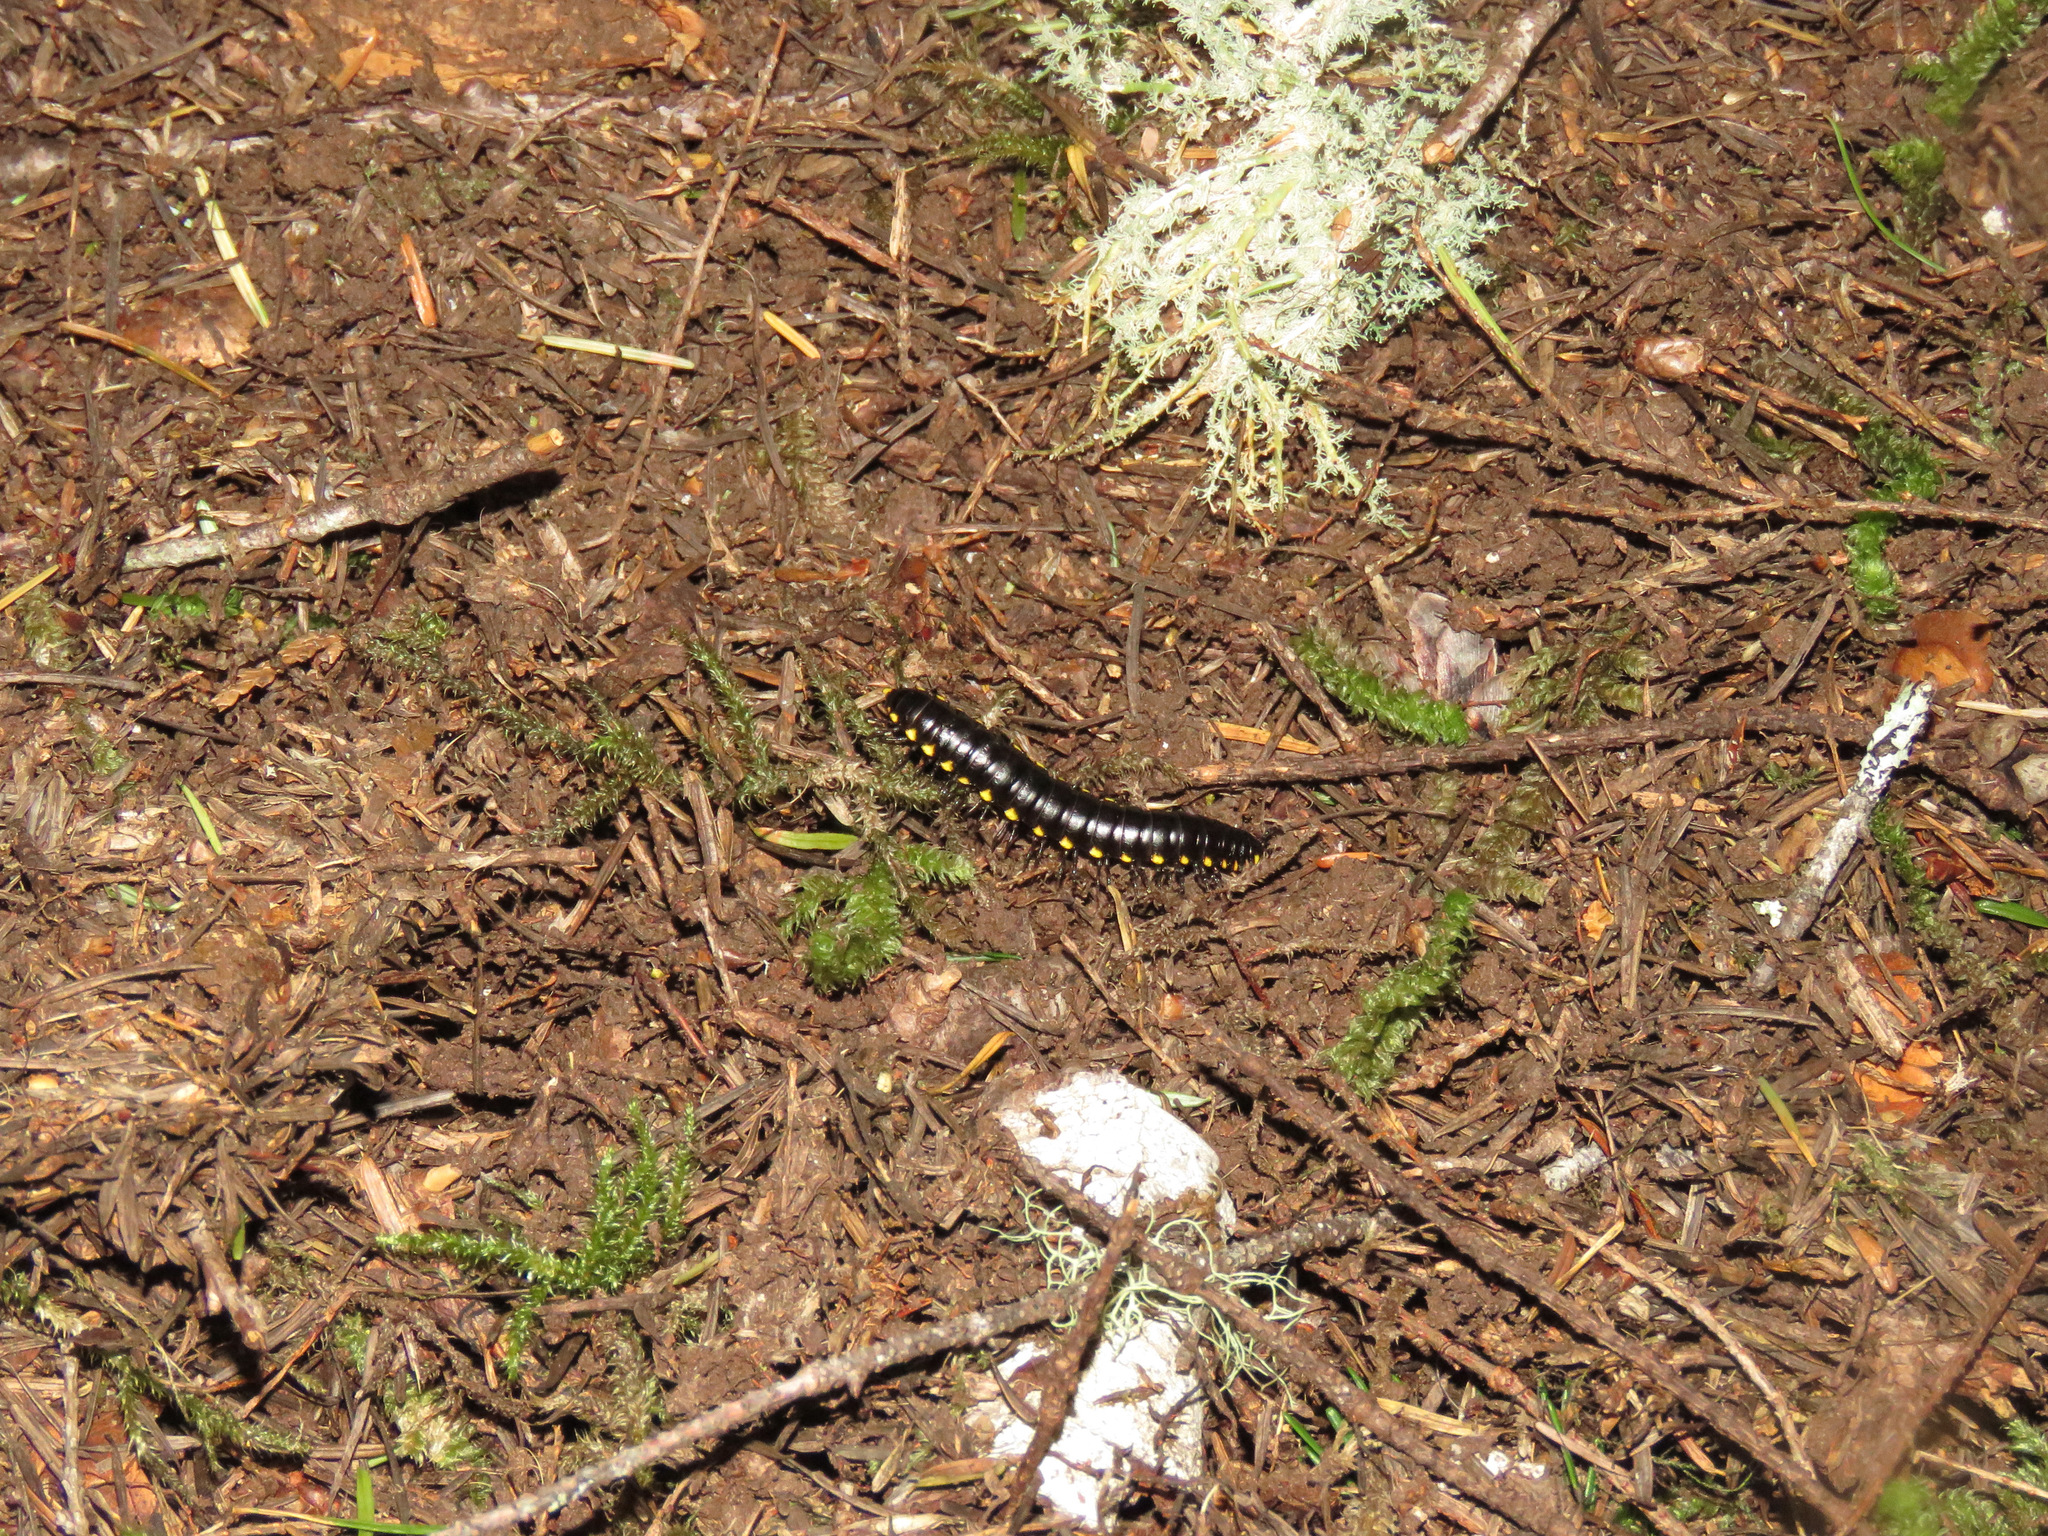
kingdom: Animalia
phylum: Arthropoda
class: Diplopoda
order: Polydesmida
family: Xystodesmidae
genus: Harpaphe
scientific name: Harpaphe haydeniana
